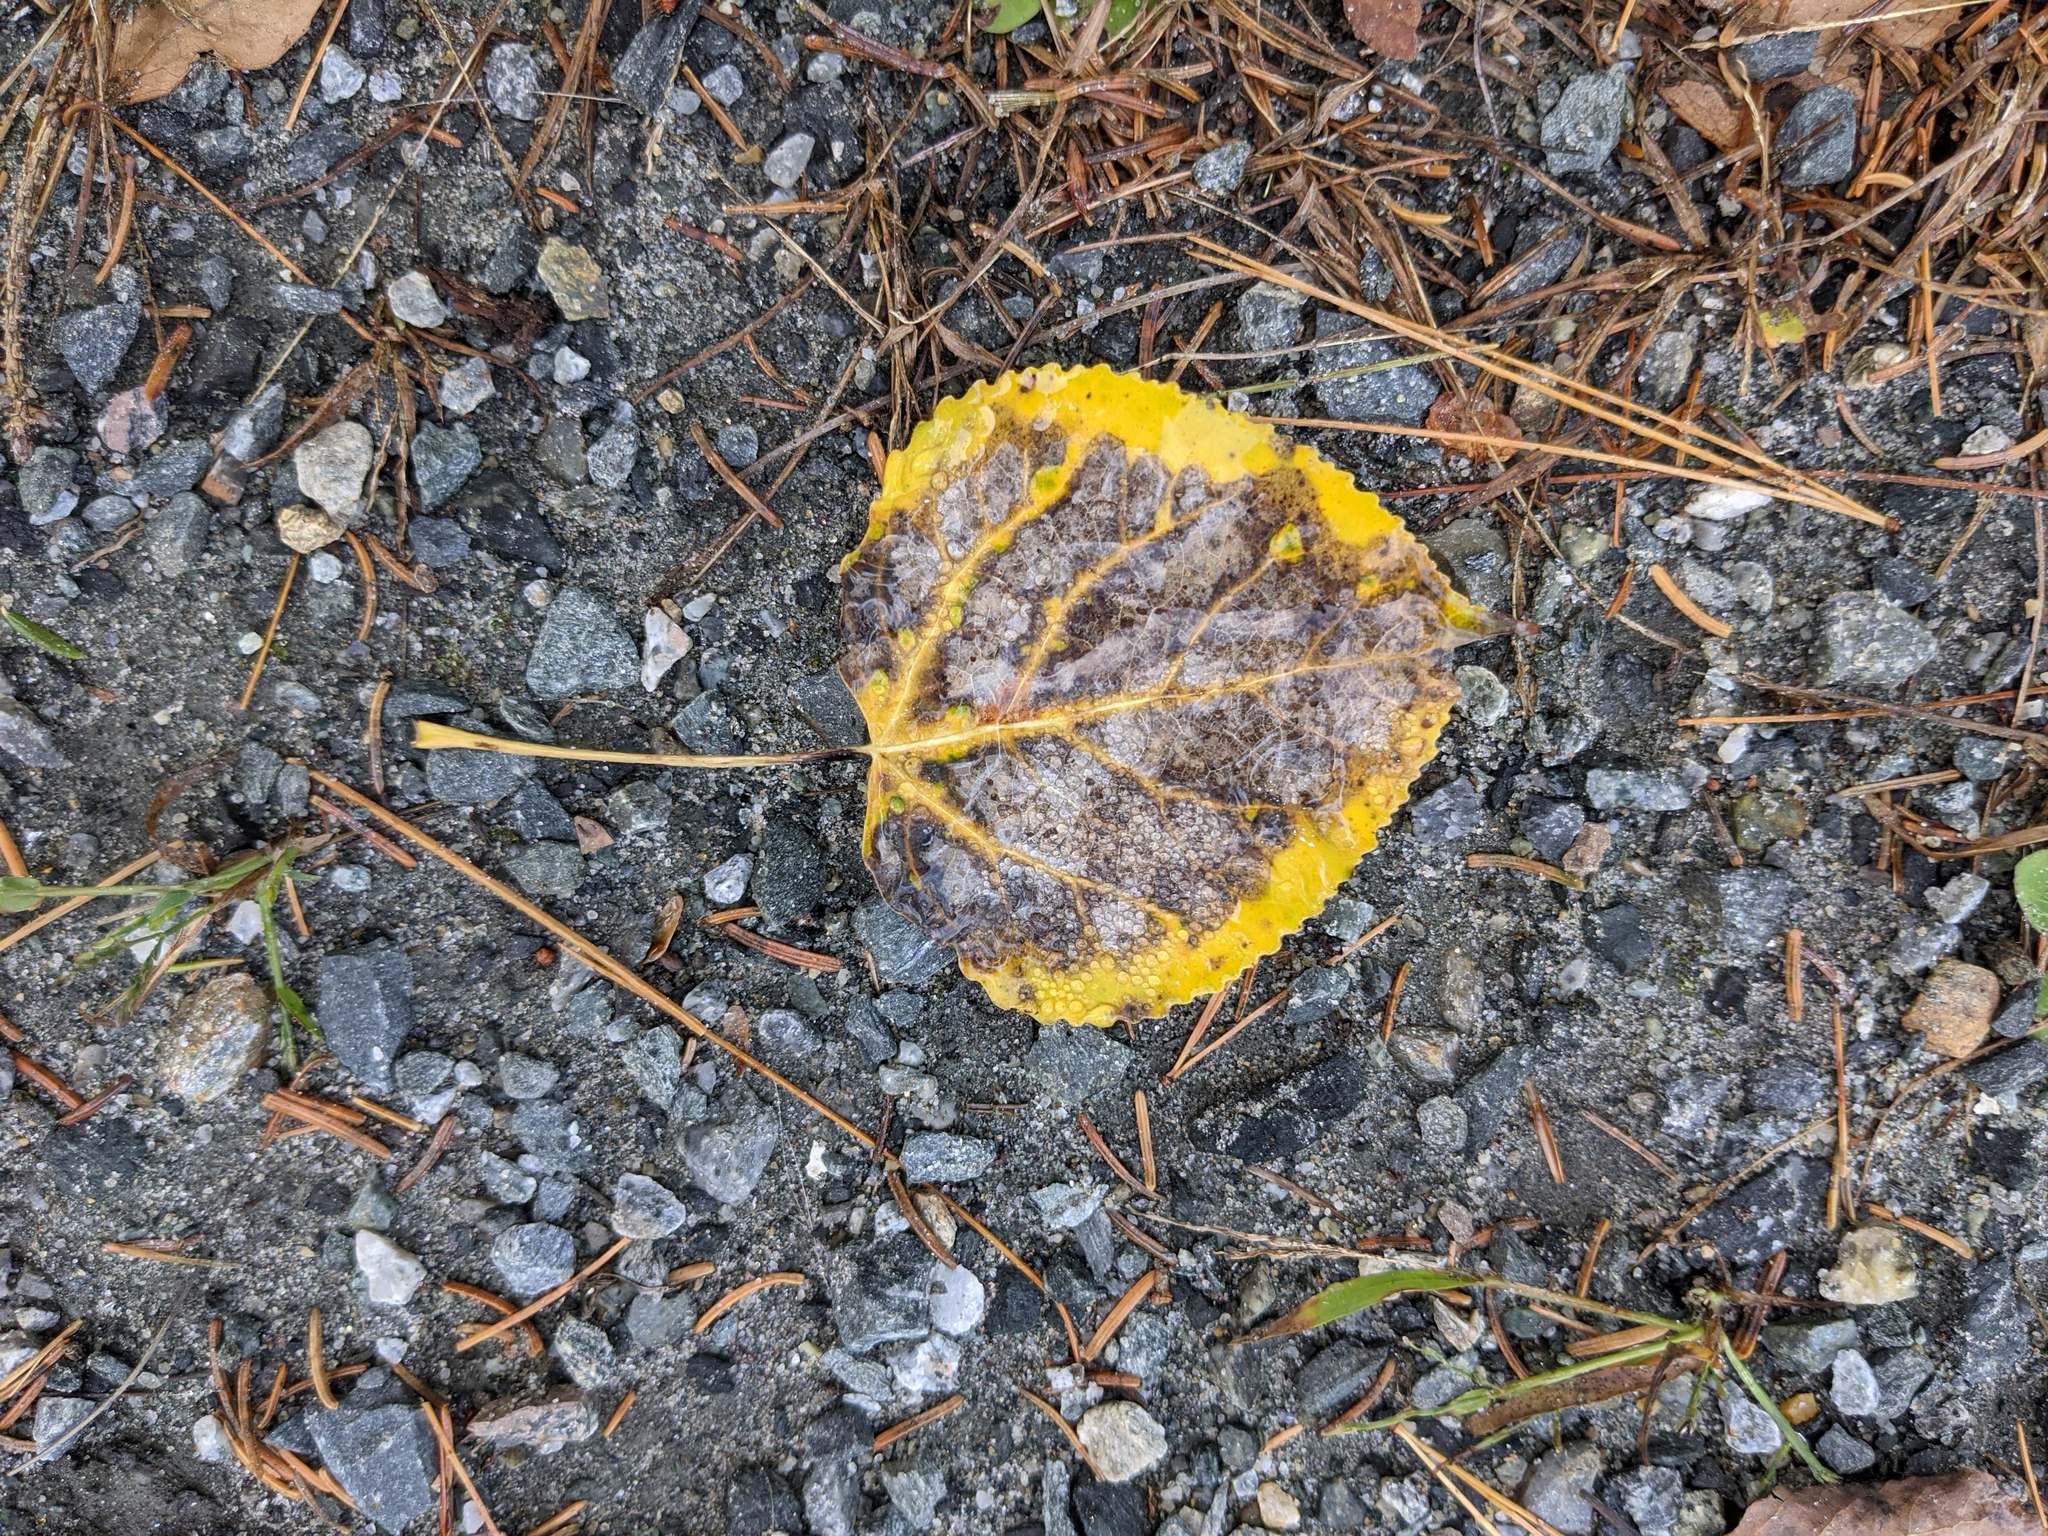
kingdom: Plantae
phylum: Tracheophyta
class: Magnoliopsida
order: Malpighiales
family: Salicaceae
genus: Populus
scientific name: Populus tremuloides
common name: Quaking aspen
